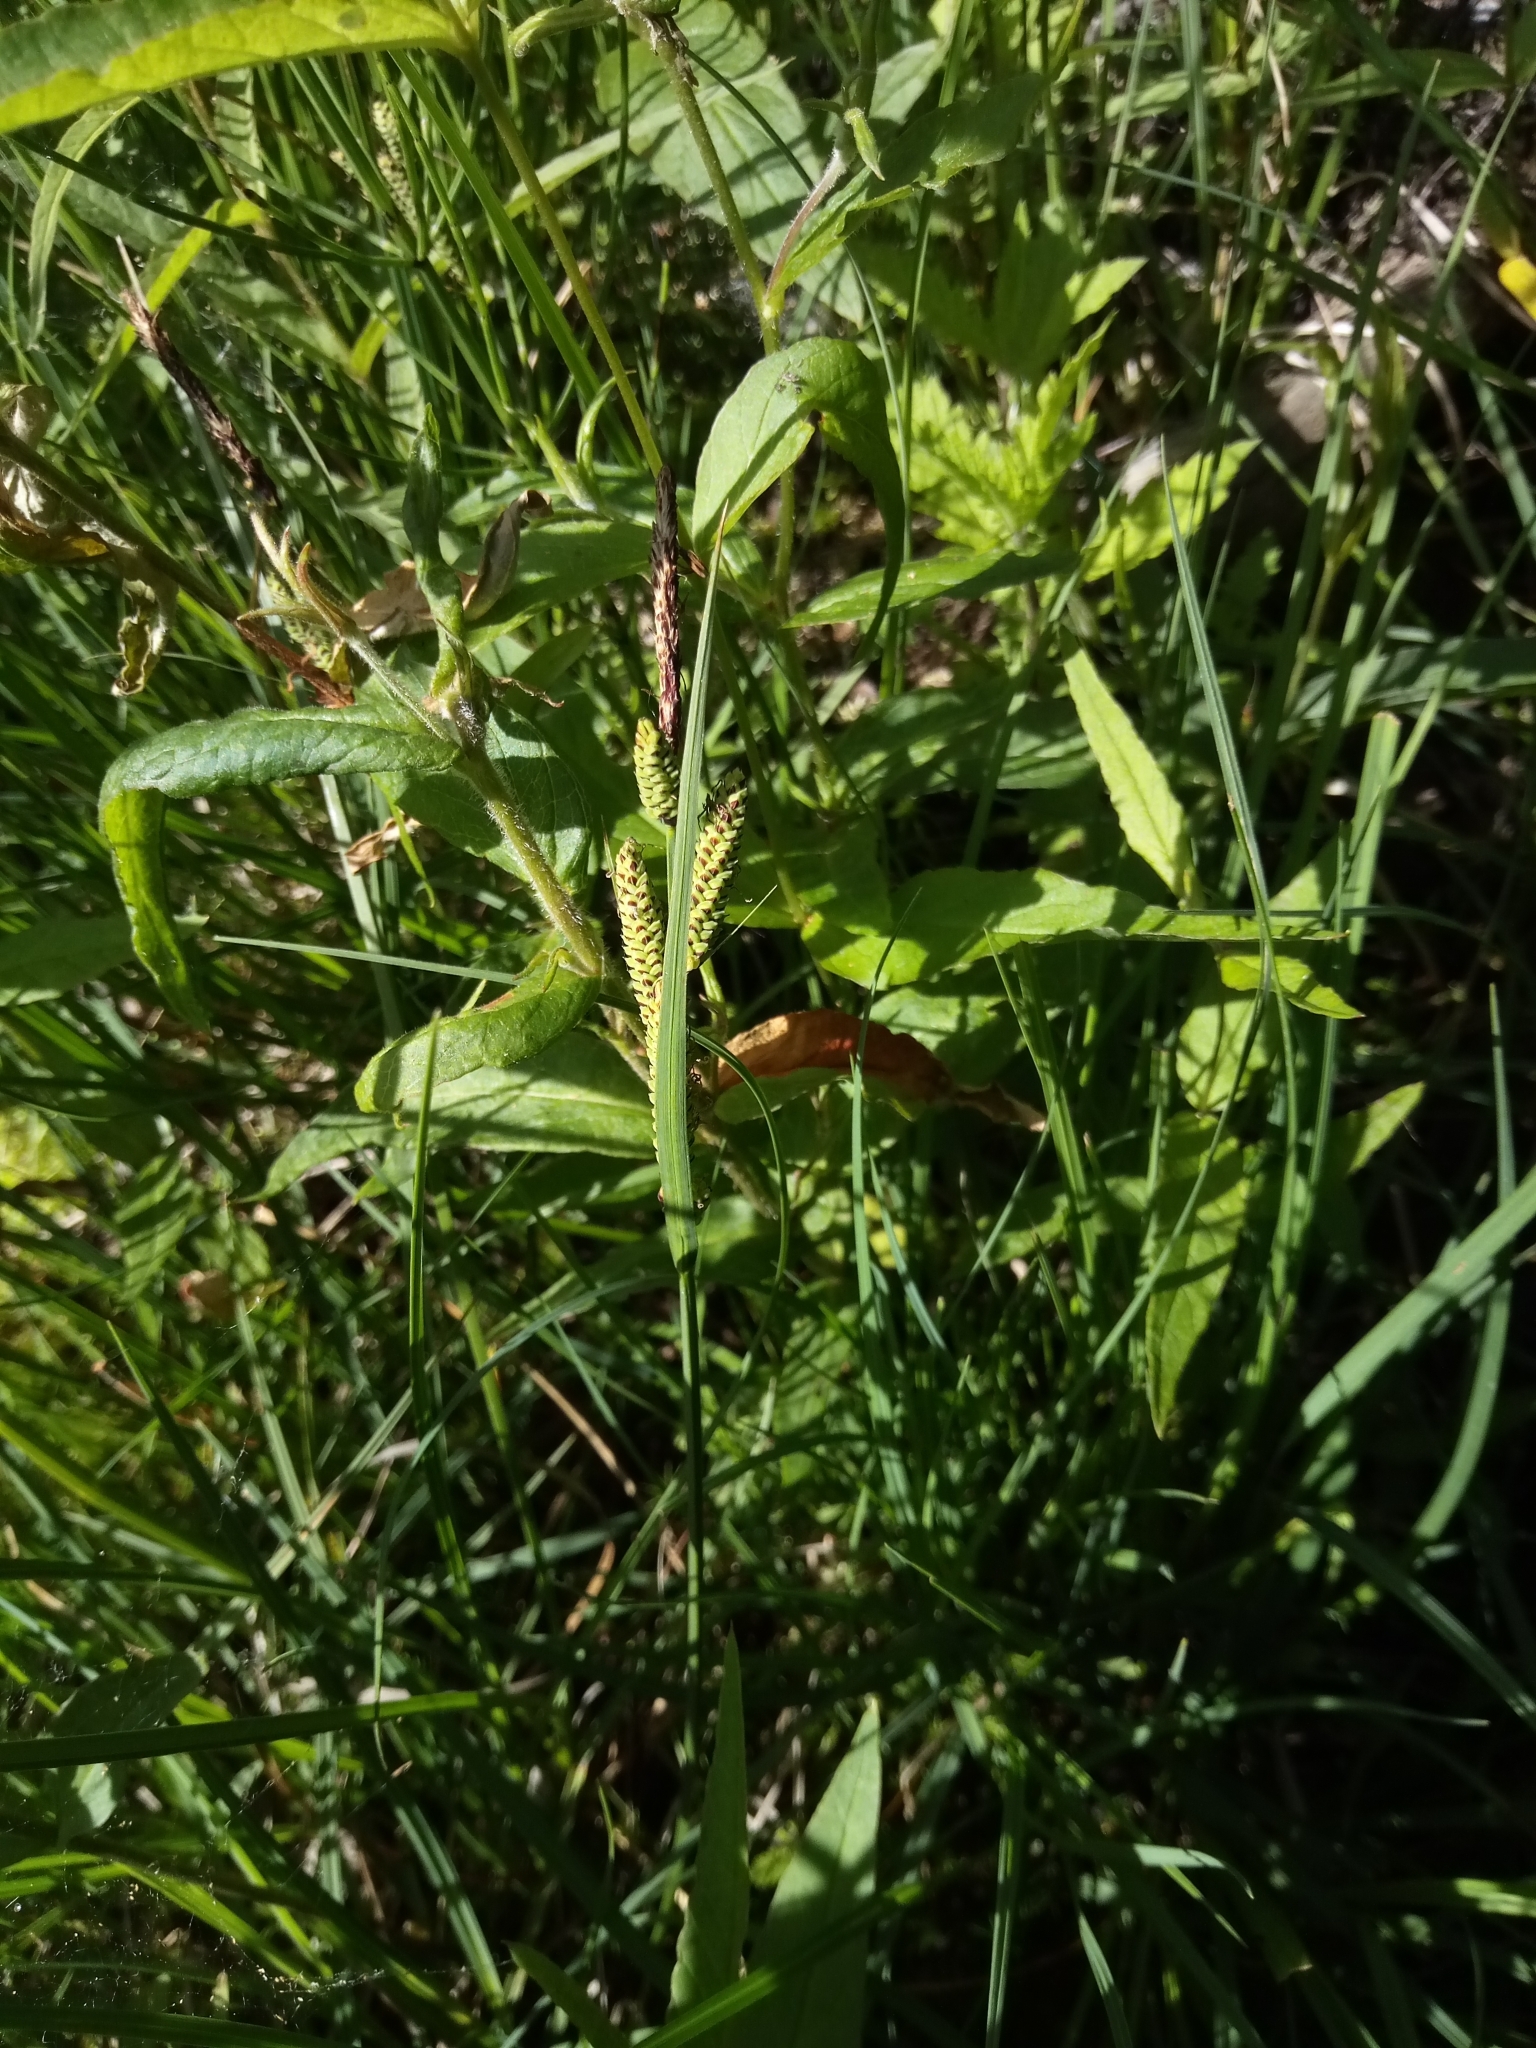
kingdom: Plantae
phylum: Tracheophyta
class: Liliopsida
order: Poales
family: Cyperaceae
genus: Carex
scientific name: Carex nigra
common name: Common sedge
